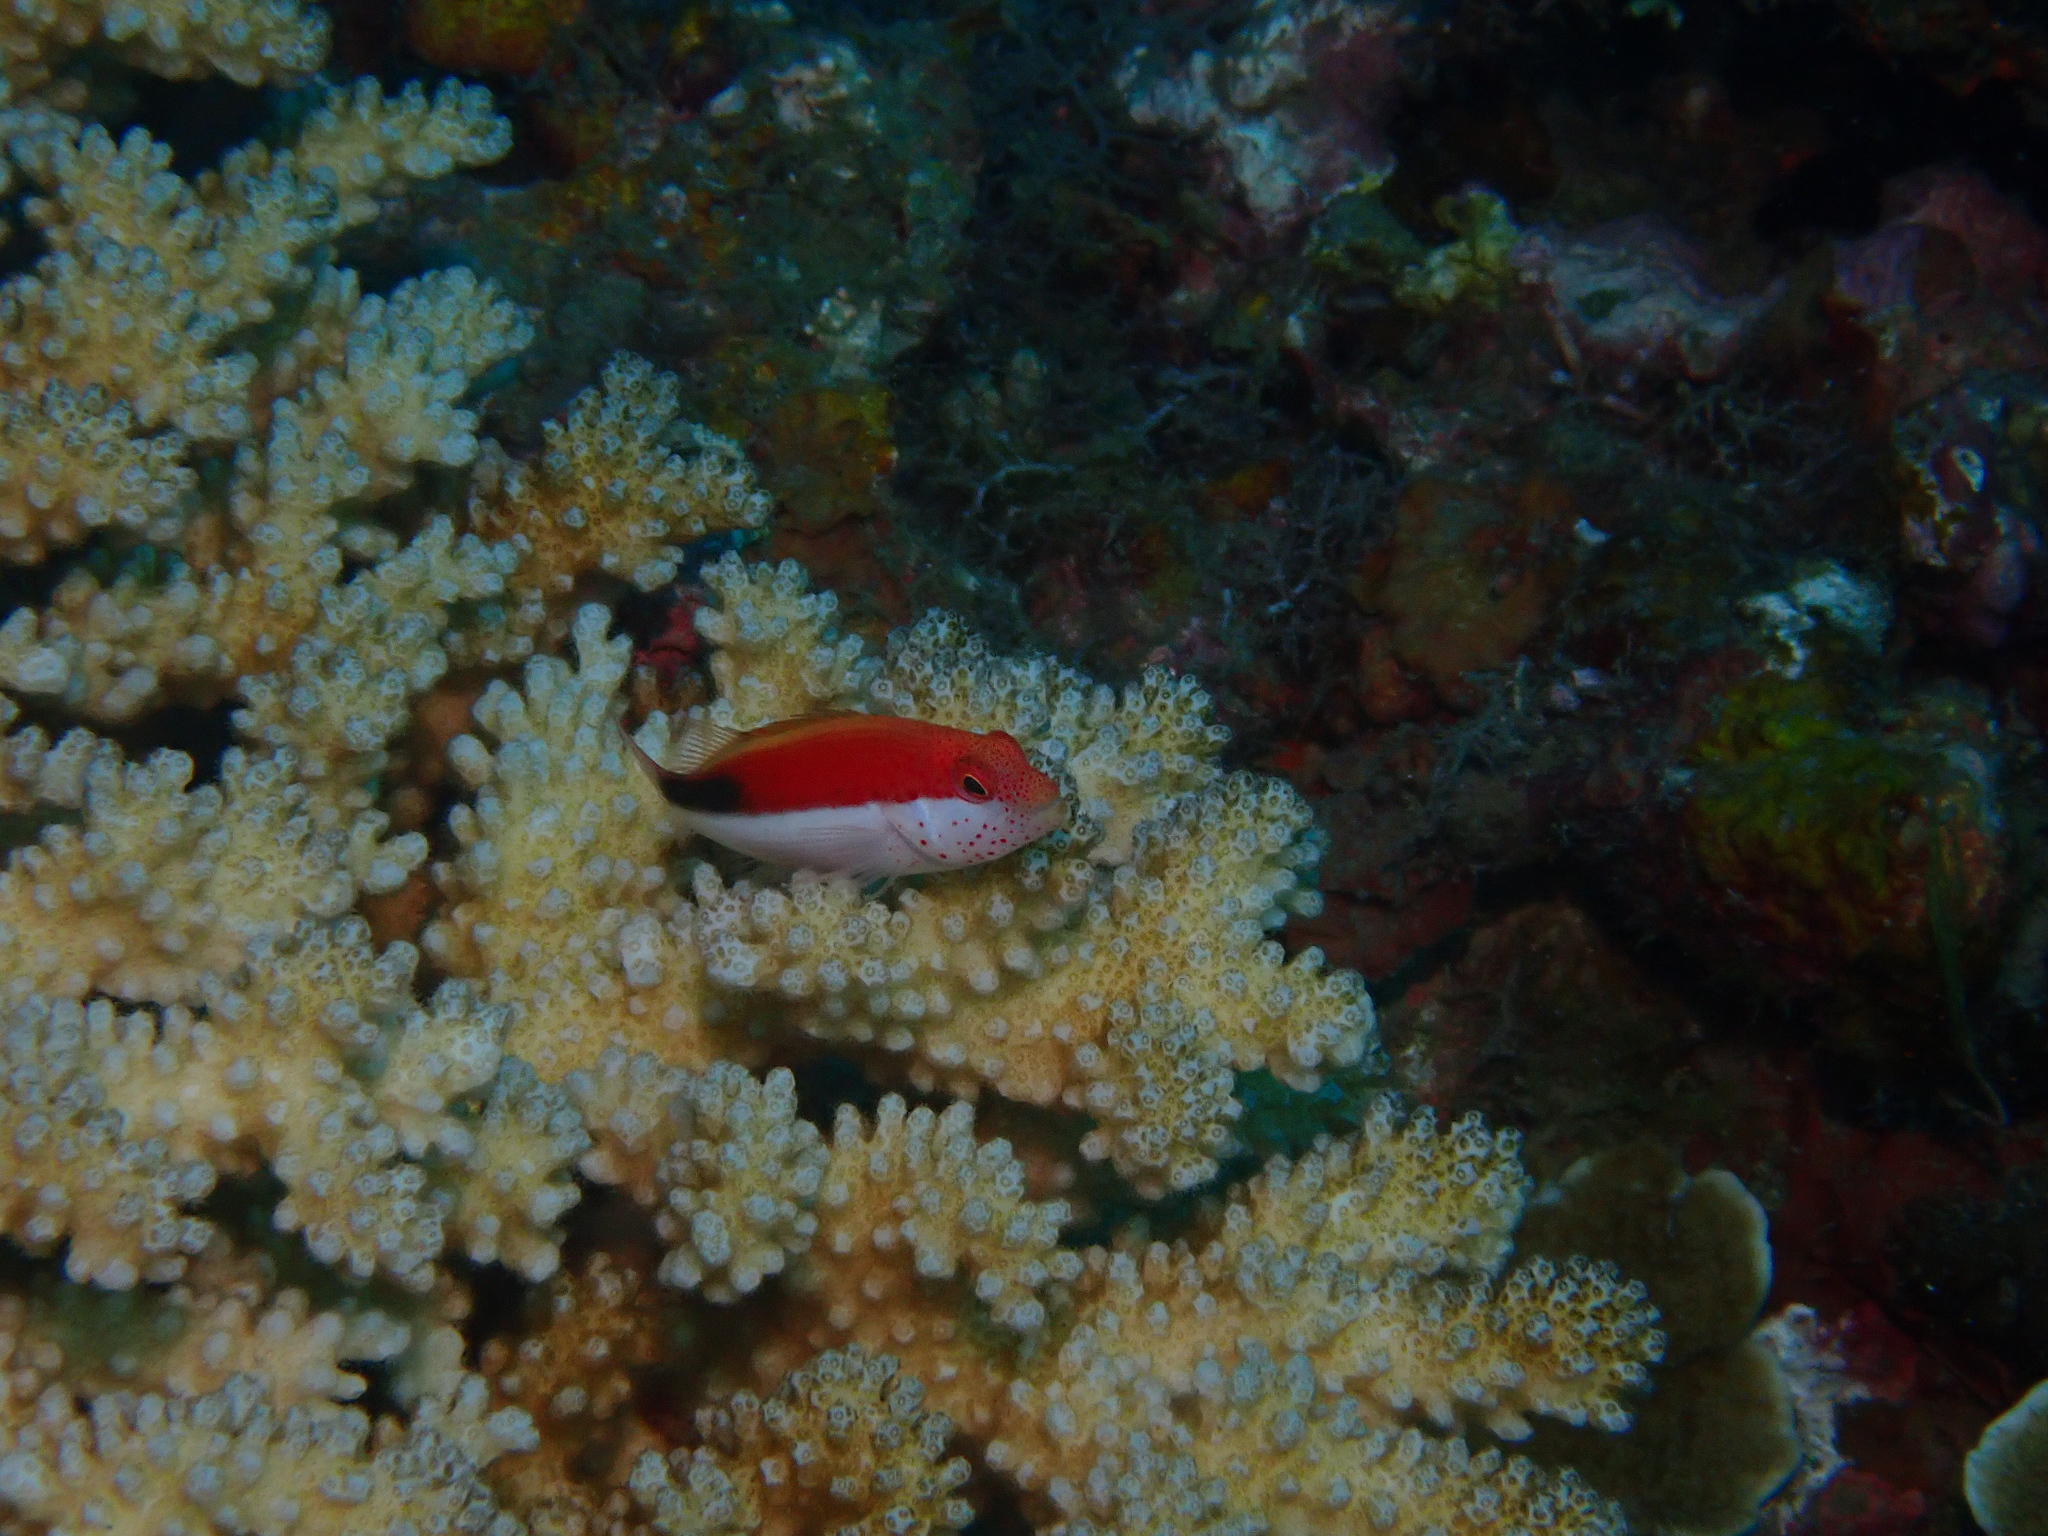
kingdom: Animalia
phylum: Chordata
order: Perciformes
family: Cirrhitidae
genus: Paracirrhites
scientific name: Paracirrhites forsteri
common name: Freckled hawkfish
